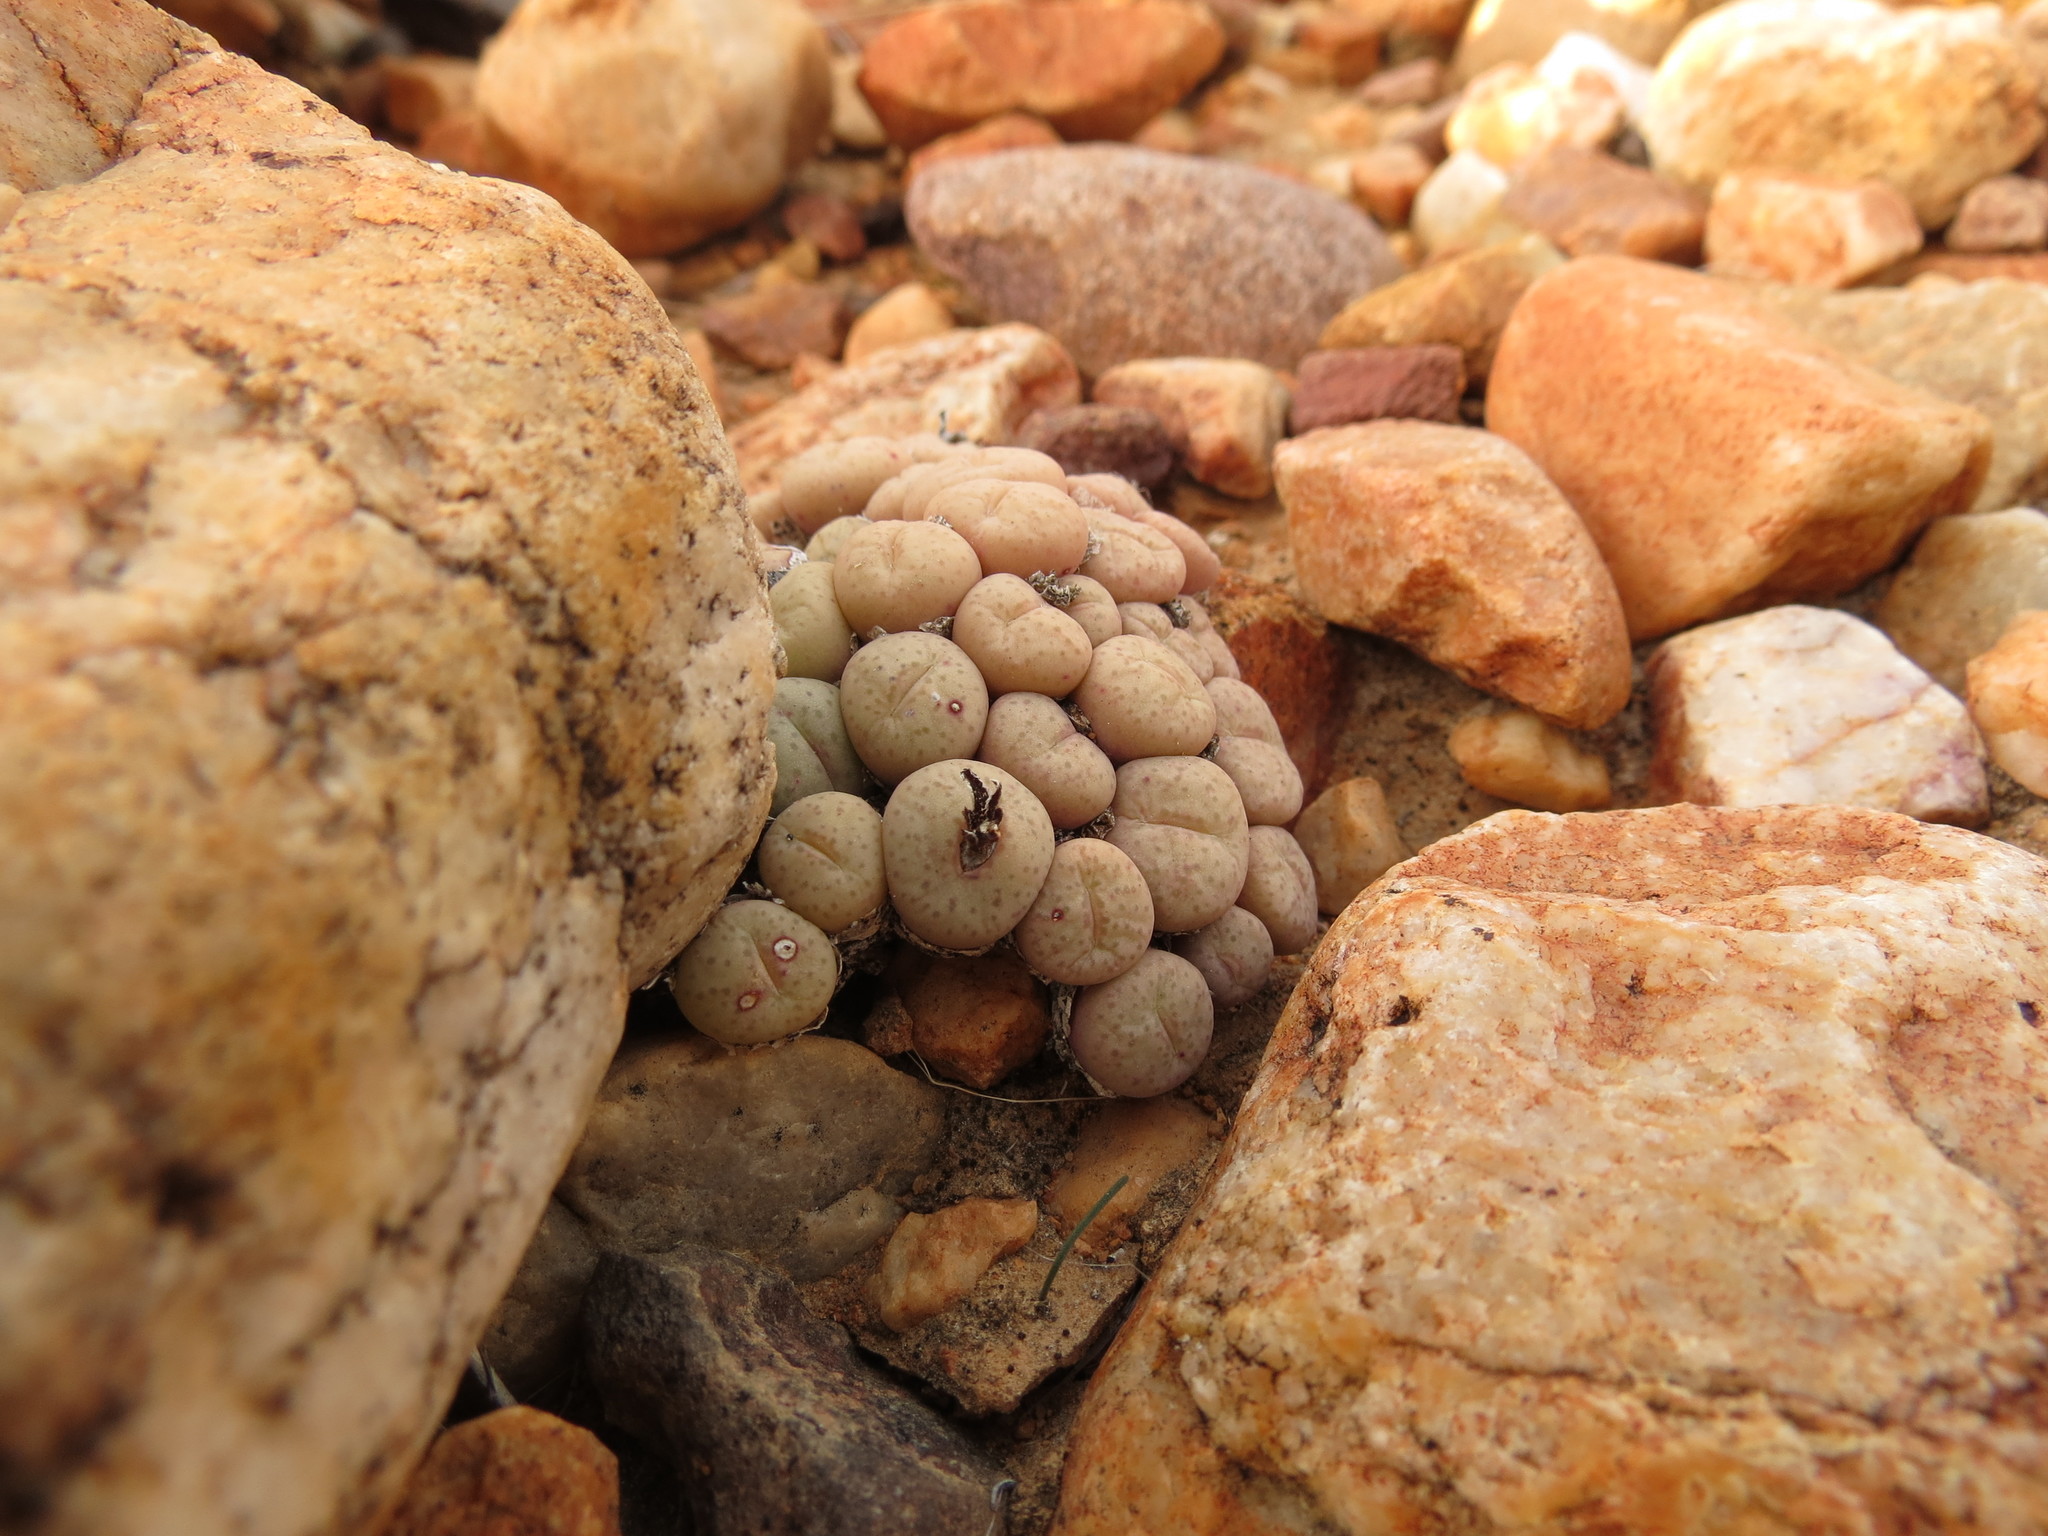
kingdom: Plantae
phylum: Tracheophyta
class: Magnoliopsida
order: Caryophyllales
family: Aizoaceae
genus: Conophytum
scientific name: Conophytum truncatum
